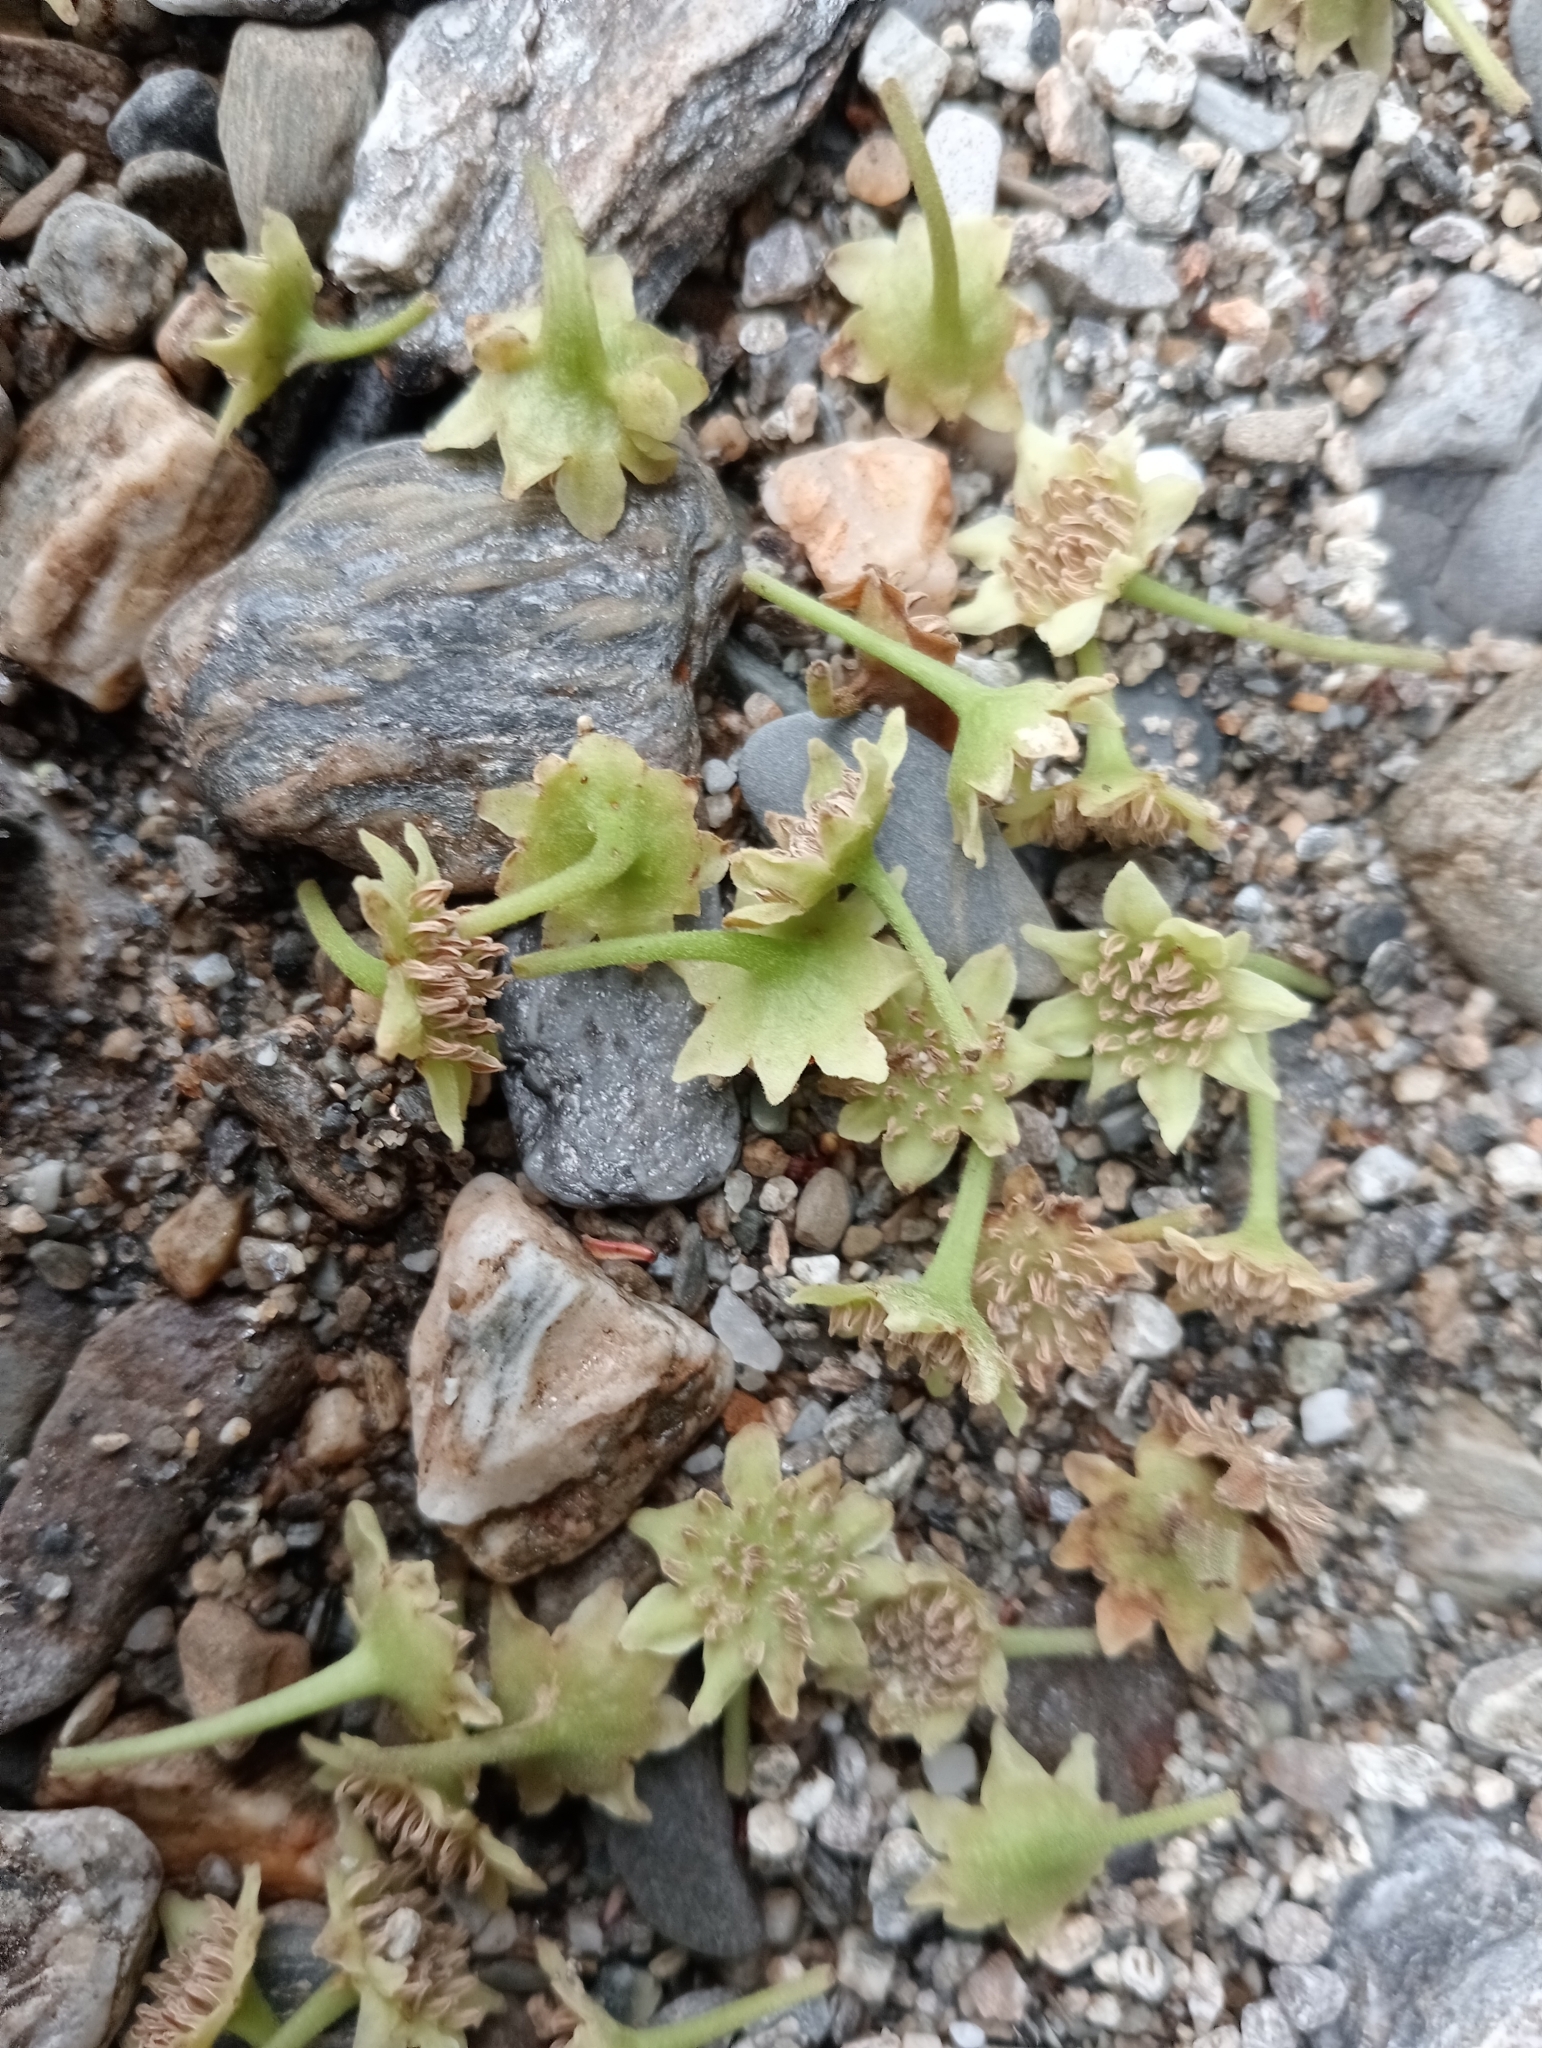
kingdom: Plantae
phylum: Tracheophyta
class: Magnoliopsida
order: Laurales
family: Monimiaceae
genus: Hedycarya
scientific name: Hedycarya arborea
